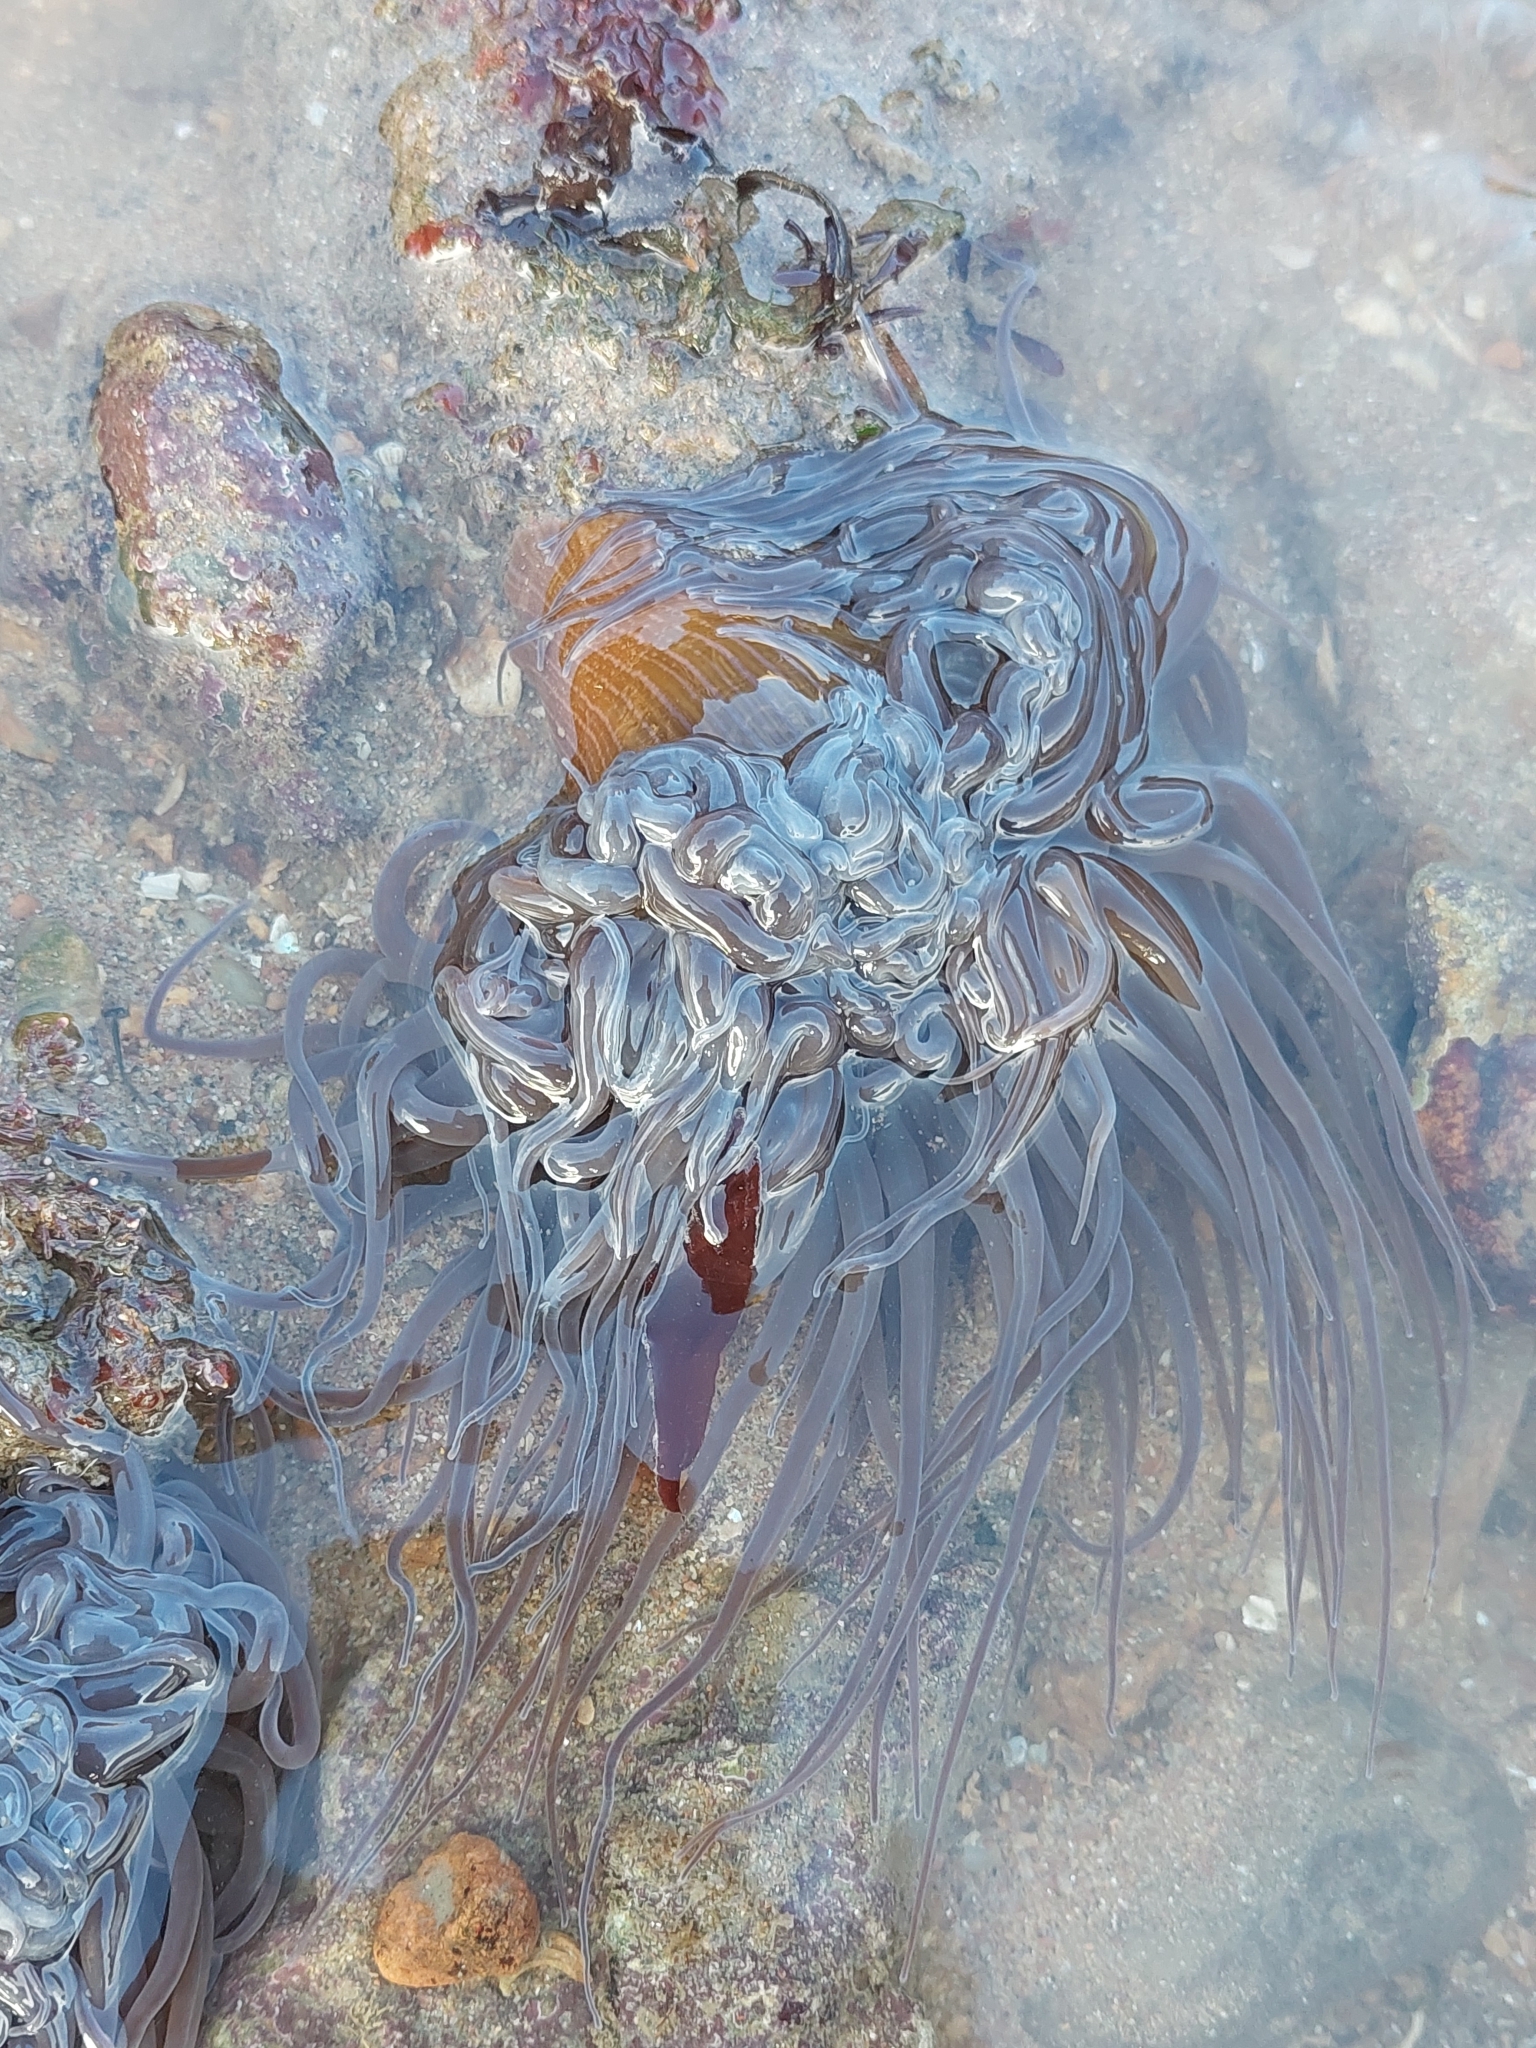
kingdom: Animalia
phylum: Cnidaria
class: Anthozoa
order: Actiniaria
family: Actiniidae
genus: Anemonia
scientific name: Anemonia viridis
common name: Snakelocks anemone
